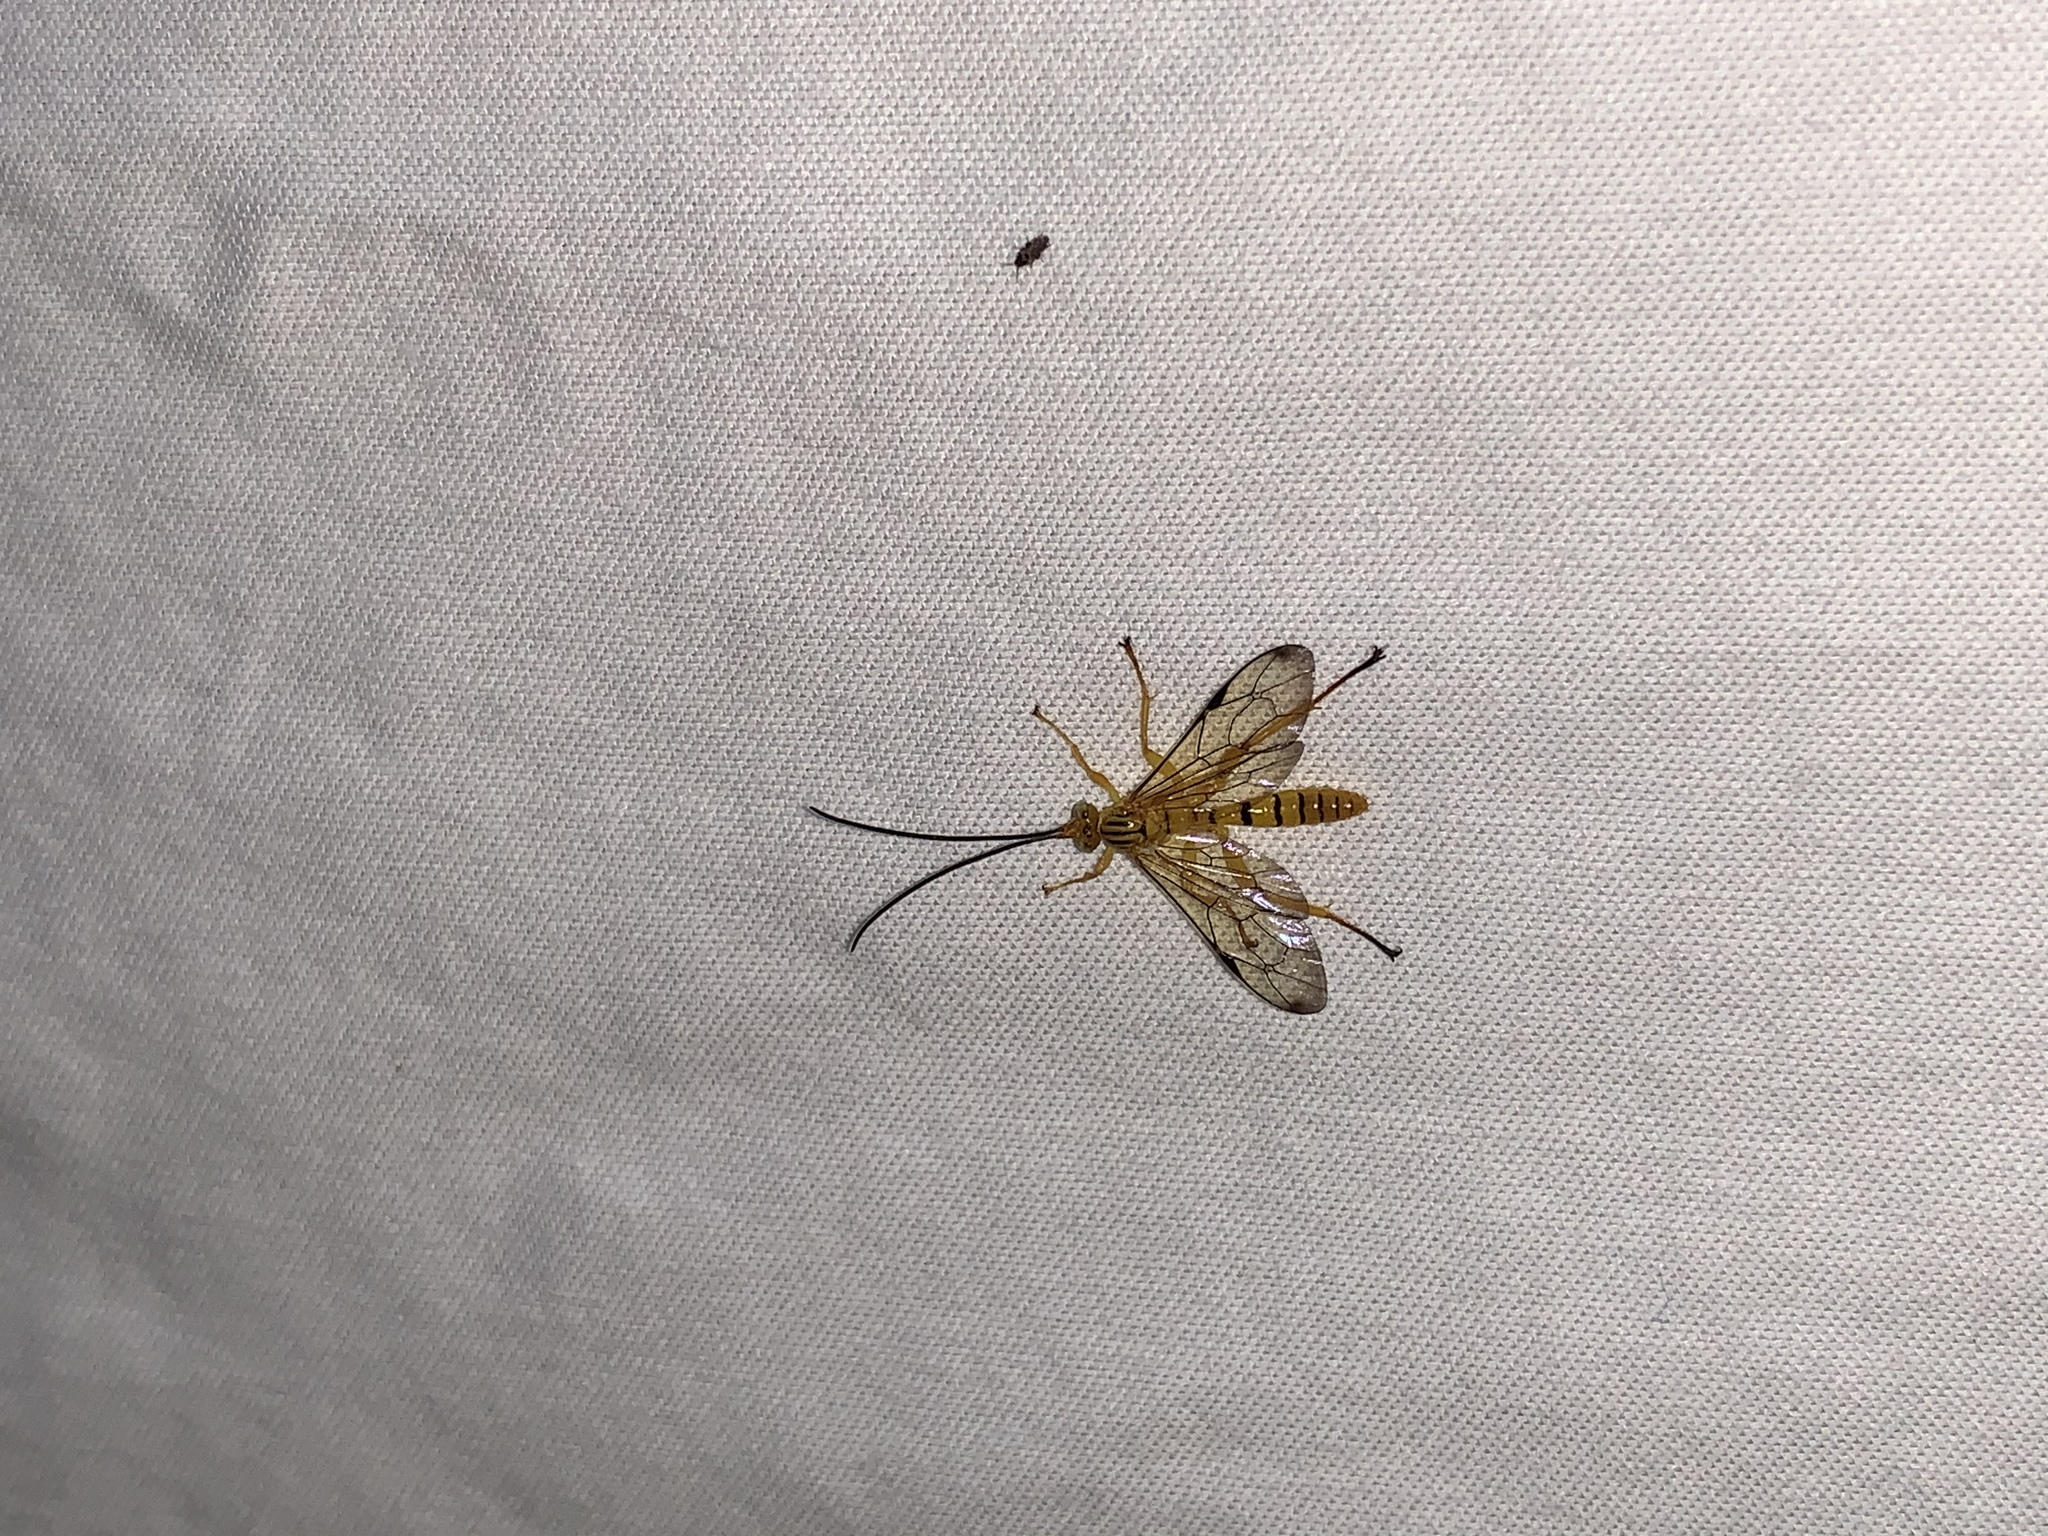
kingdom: Animalia
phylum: Arthropoda
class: Insecta
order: Hymenoptera
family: Ichneumonidae
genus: Neotheronia
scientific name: Neotheronia septemtrionalis
